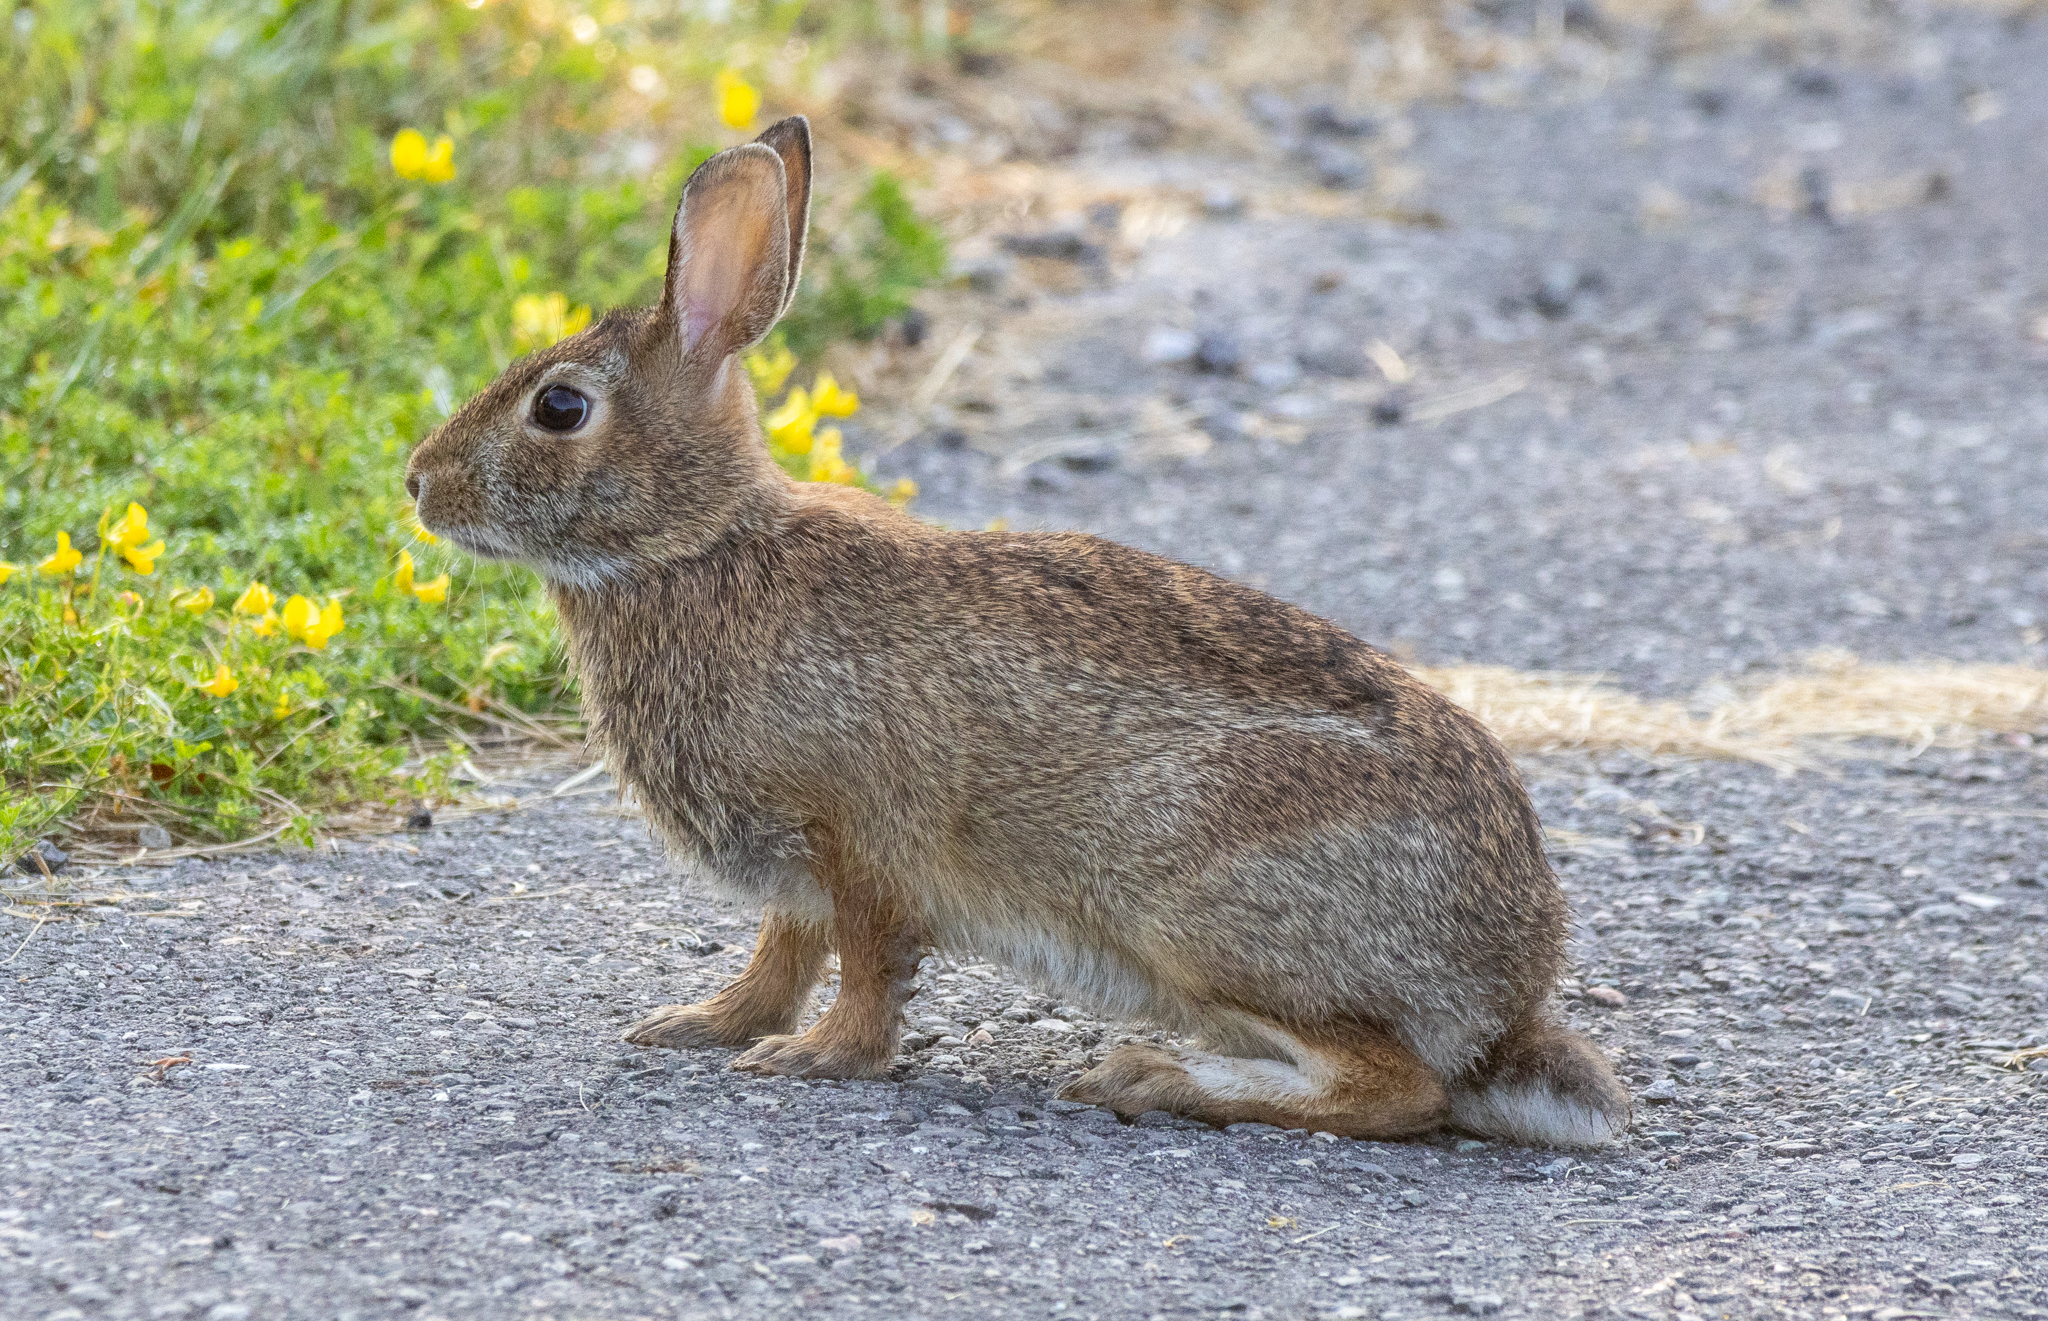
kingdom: Animalia
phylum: Chordata
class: Mammalia
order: Lagomorpha
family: Leporidae
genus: Sylvilagus
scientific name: Sylvilagus floridanus
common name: Eastern cottontail
